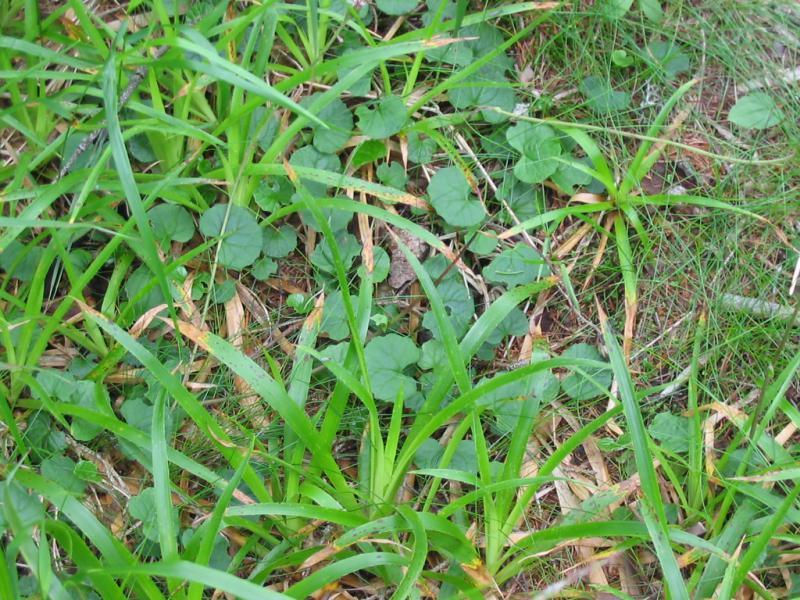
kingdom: Plantae
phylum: Tracheophyta
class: Liliopsida
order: Poales
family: Juncaceae
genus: Luzula
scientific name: Luzula sylvatica
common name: Great wood-rush
